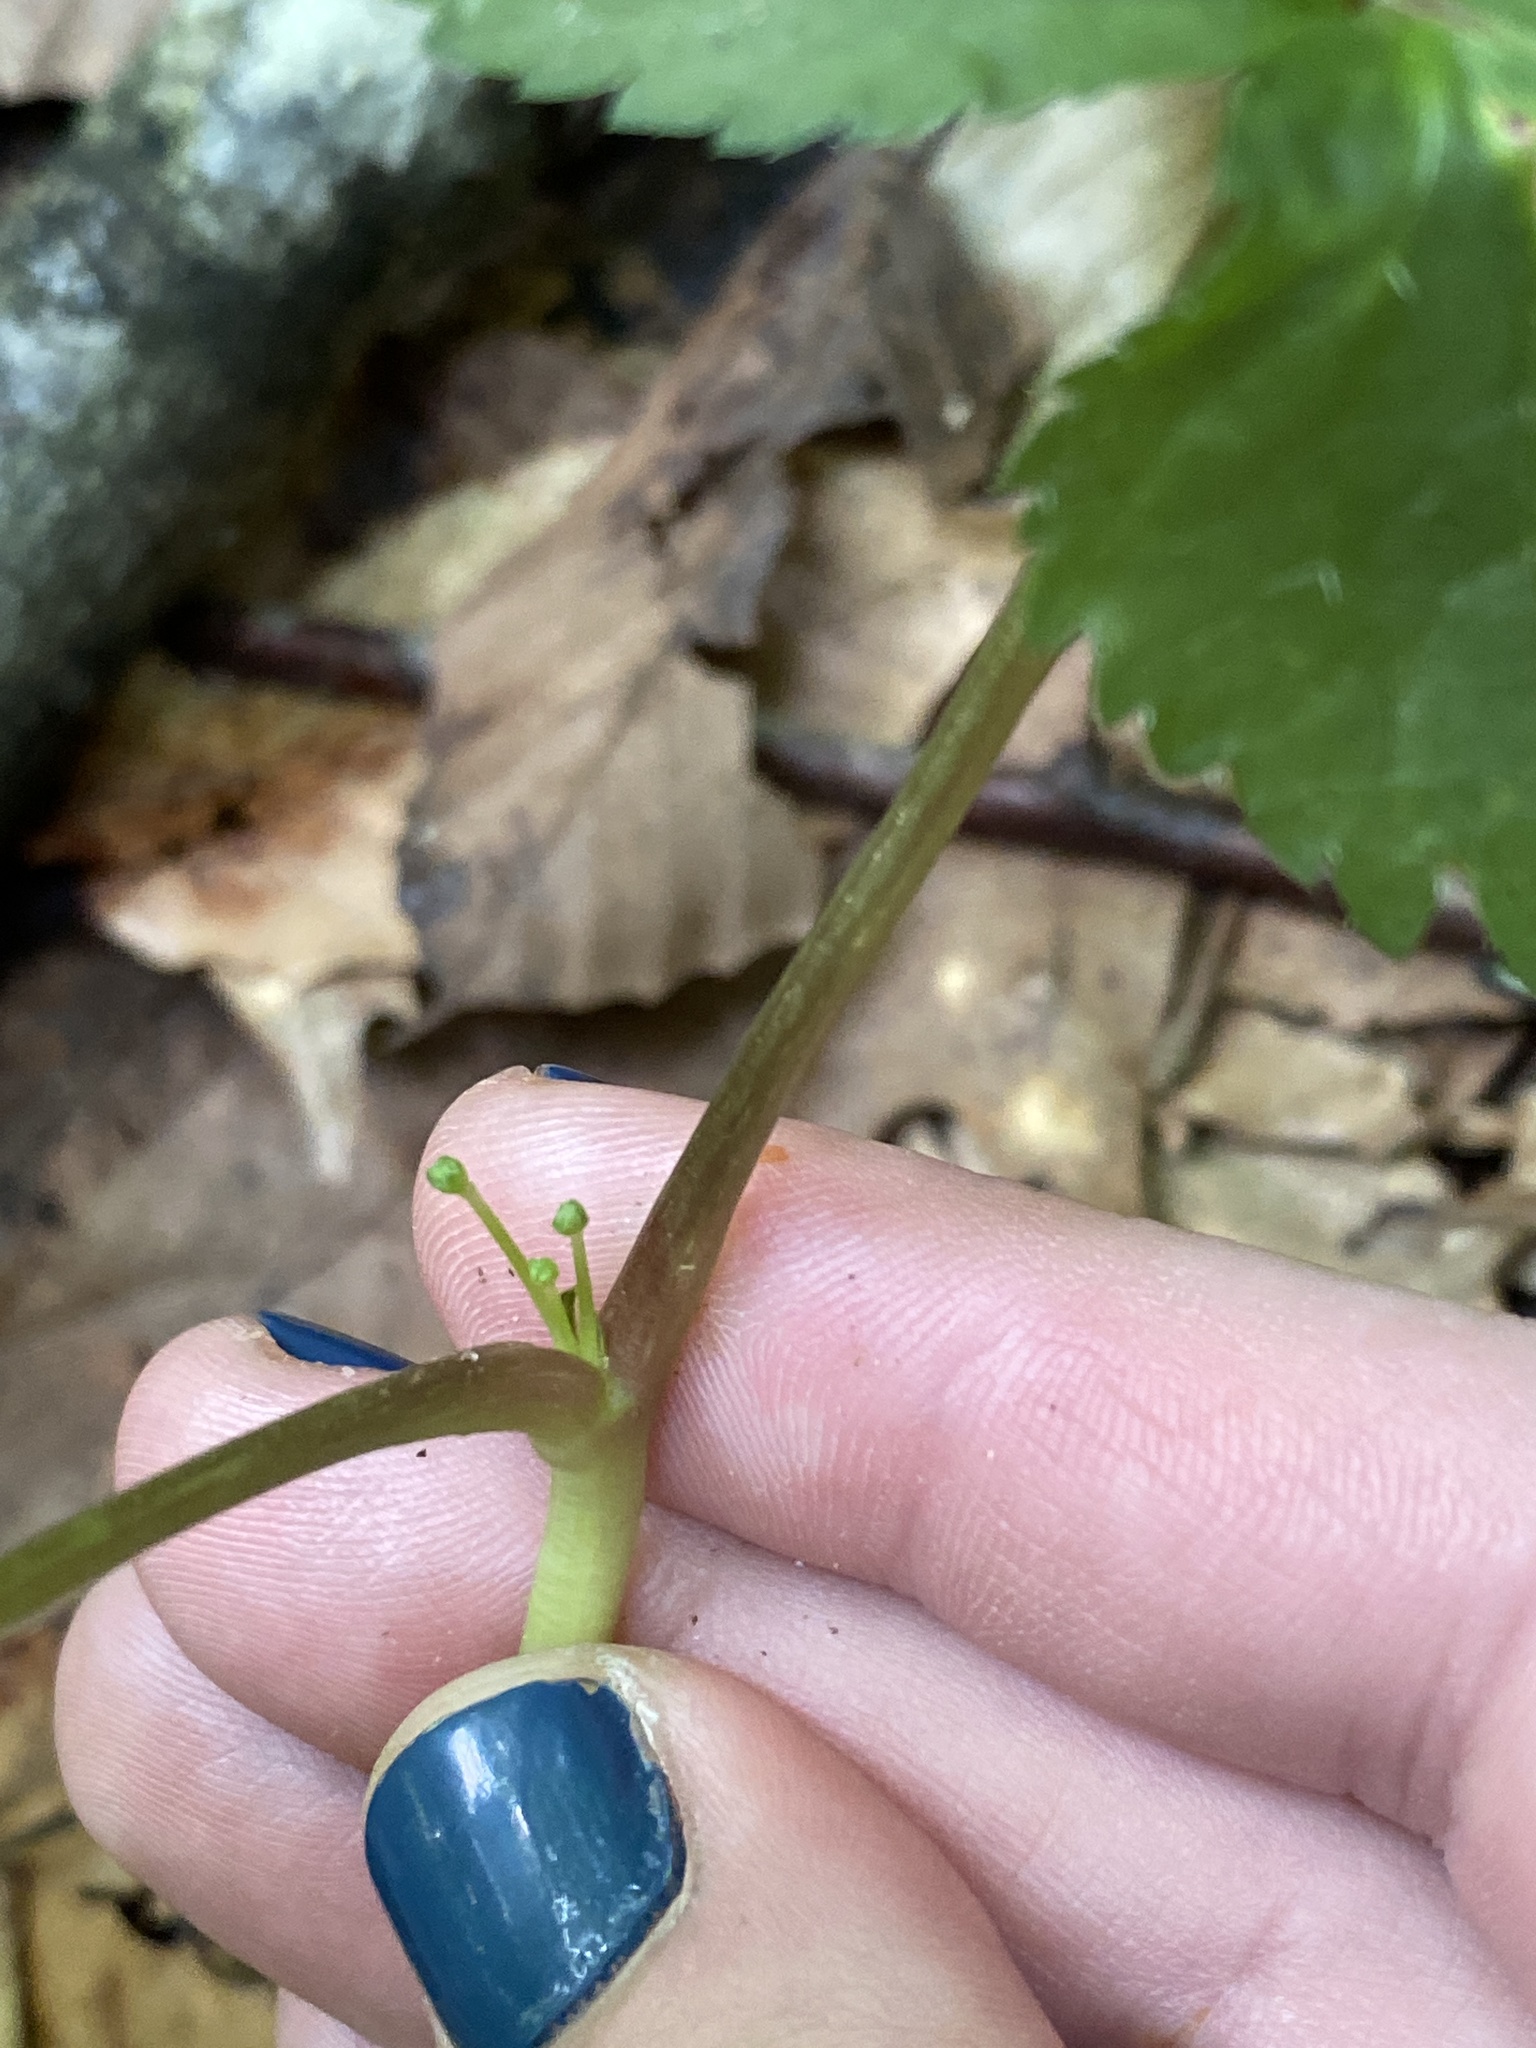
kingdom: Plantae
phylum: Tracheophyta
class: Magnoliopsida
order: Apiales
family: Araliaceae
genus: Panax
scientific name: Panax quinquefolius
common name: American ginseng
